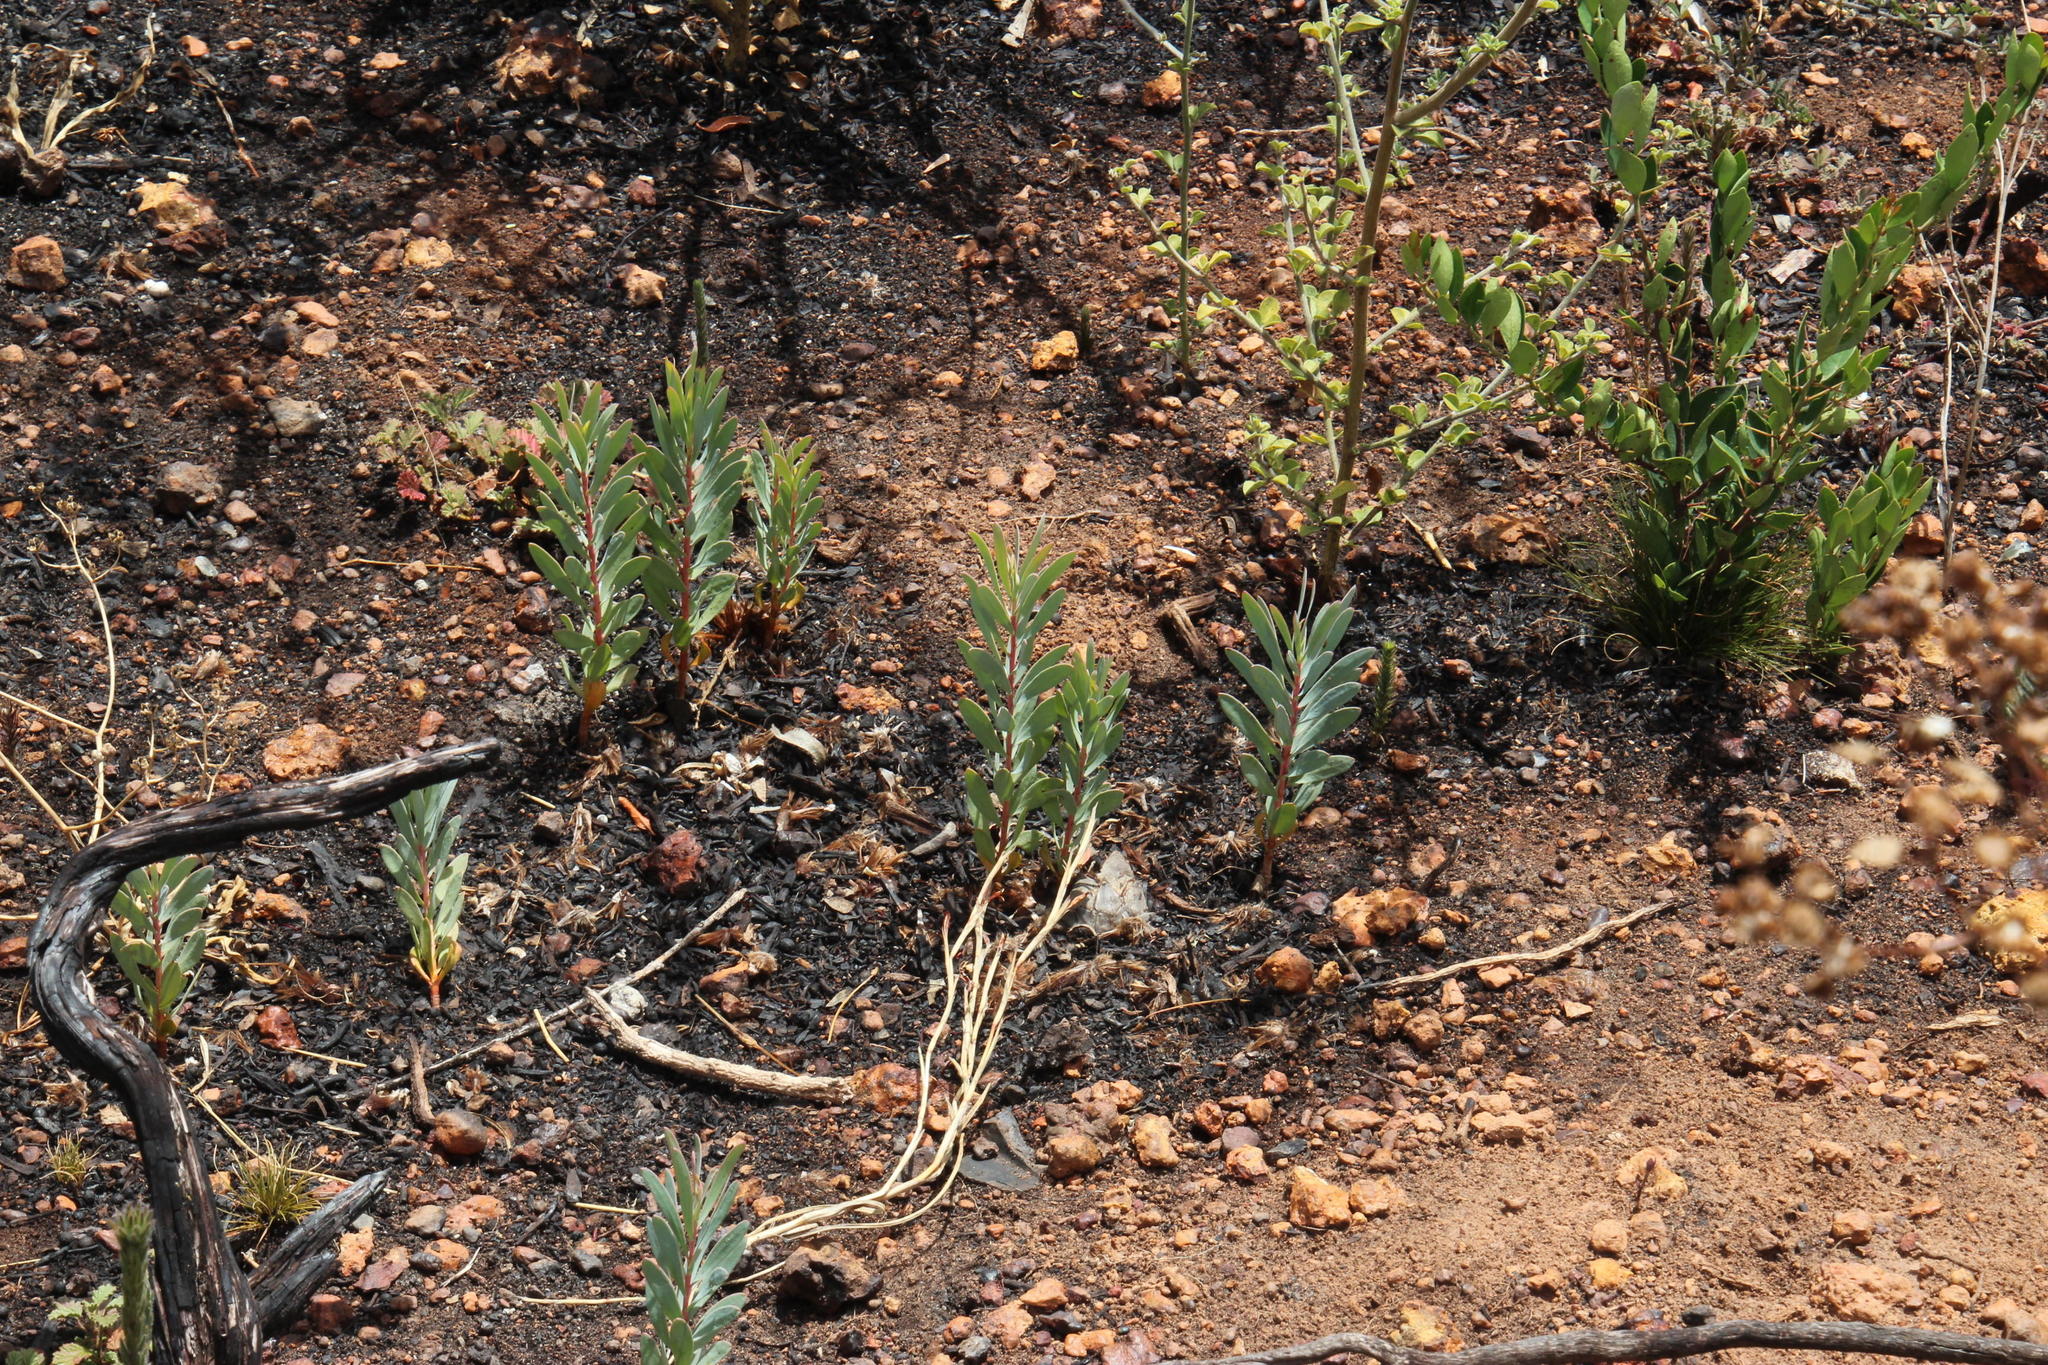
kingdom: Plantae
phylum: Tracheophyta
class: Magnoliopsida
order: Proteales
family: Proteaceae
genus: Protea
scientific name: Protea repens
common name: Sugarbush
